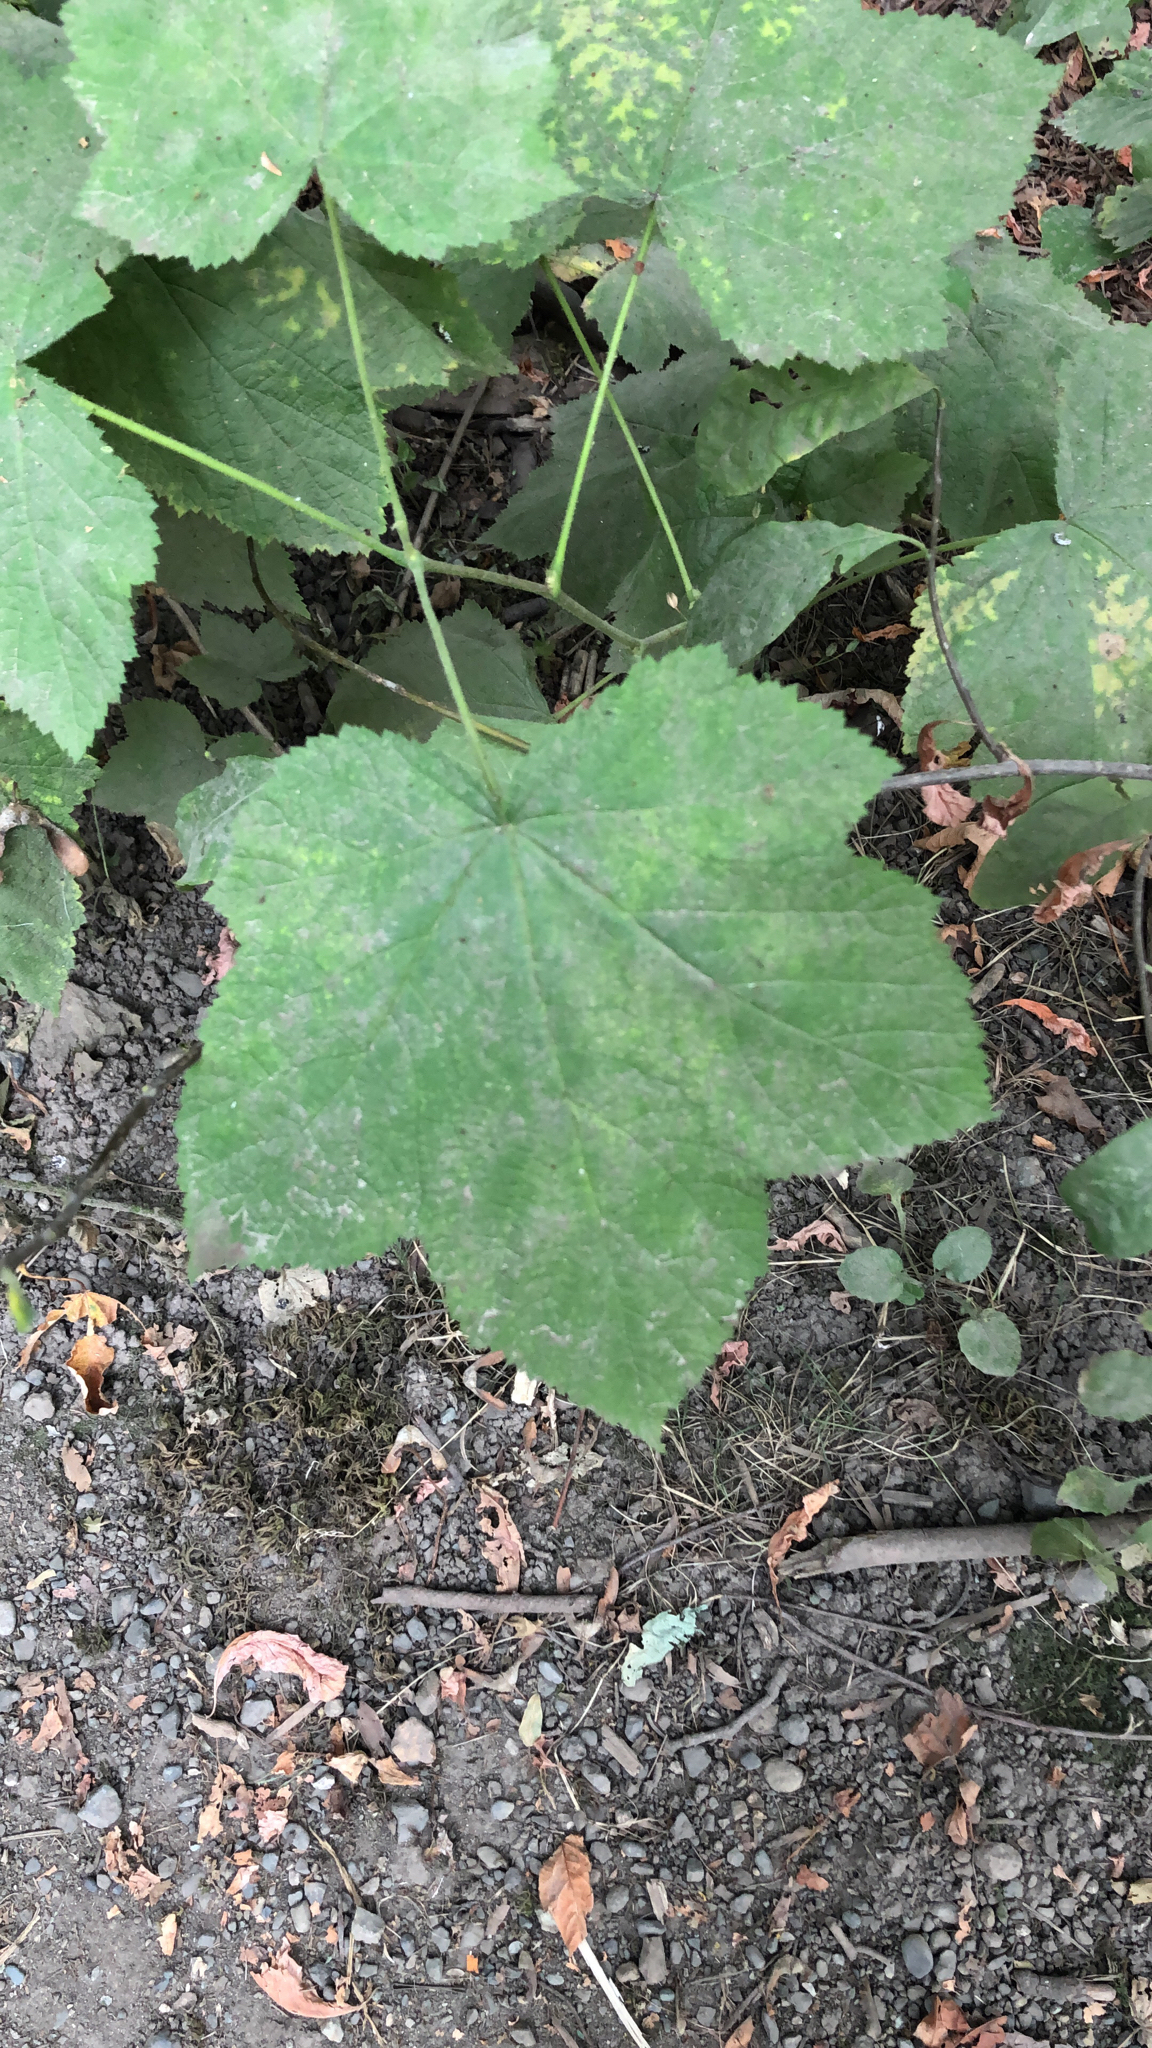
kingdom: Plantae
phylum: Tracheophyta
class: Magnoliopsida
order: Rosales
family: Rosaceae
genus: Rubus
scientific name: Rubus parviflorus
